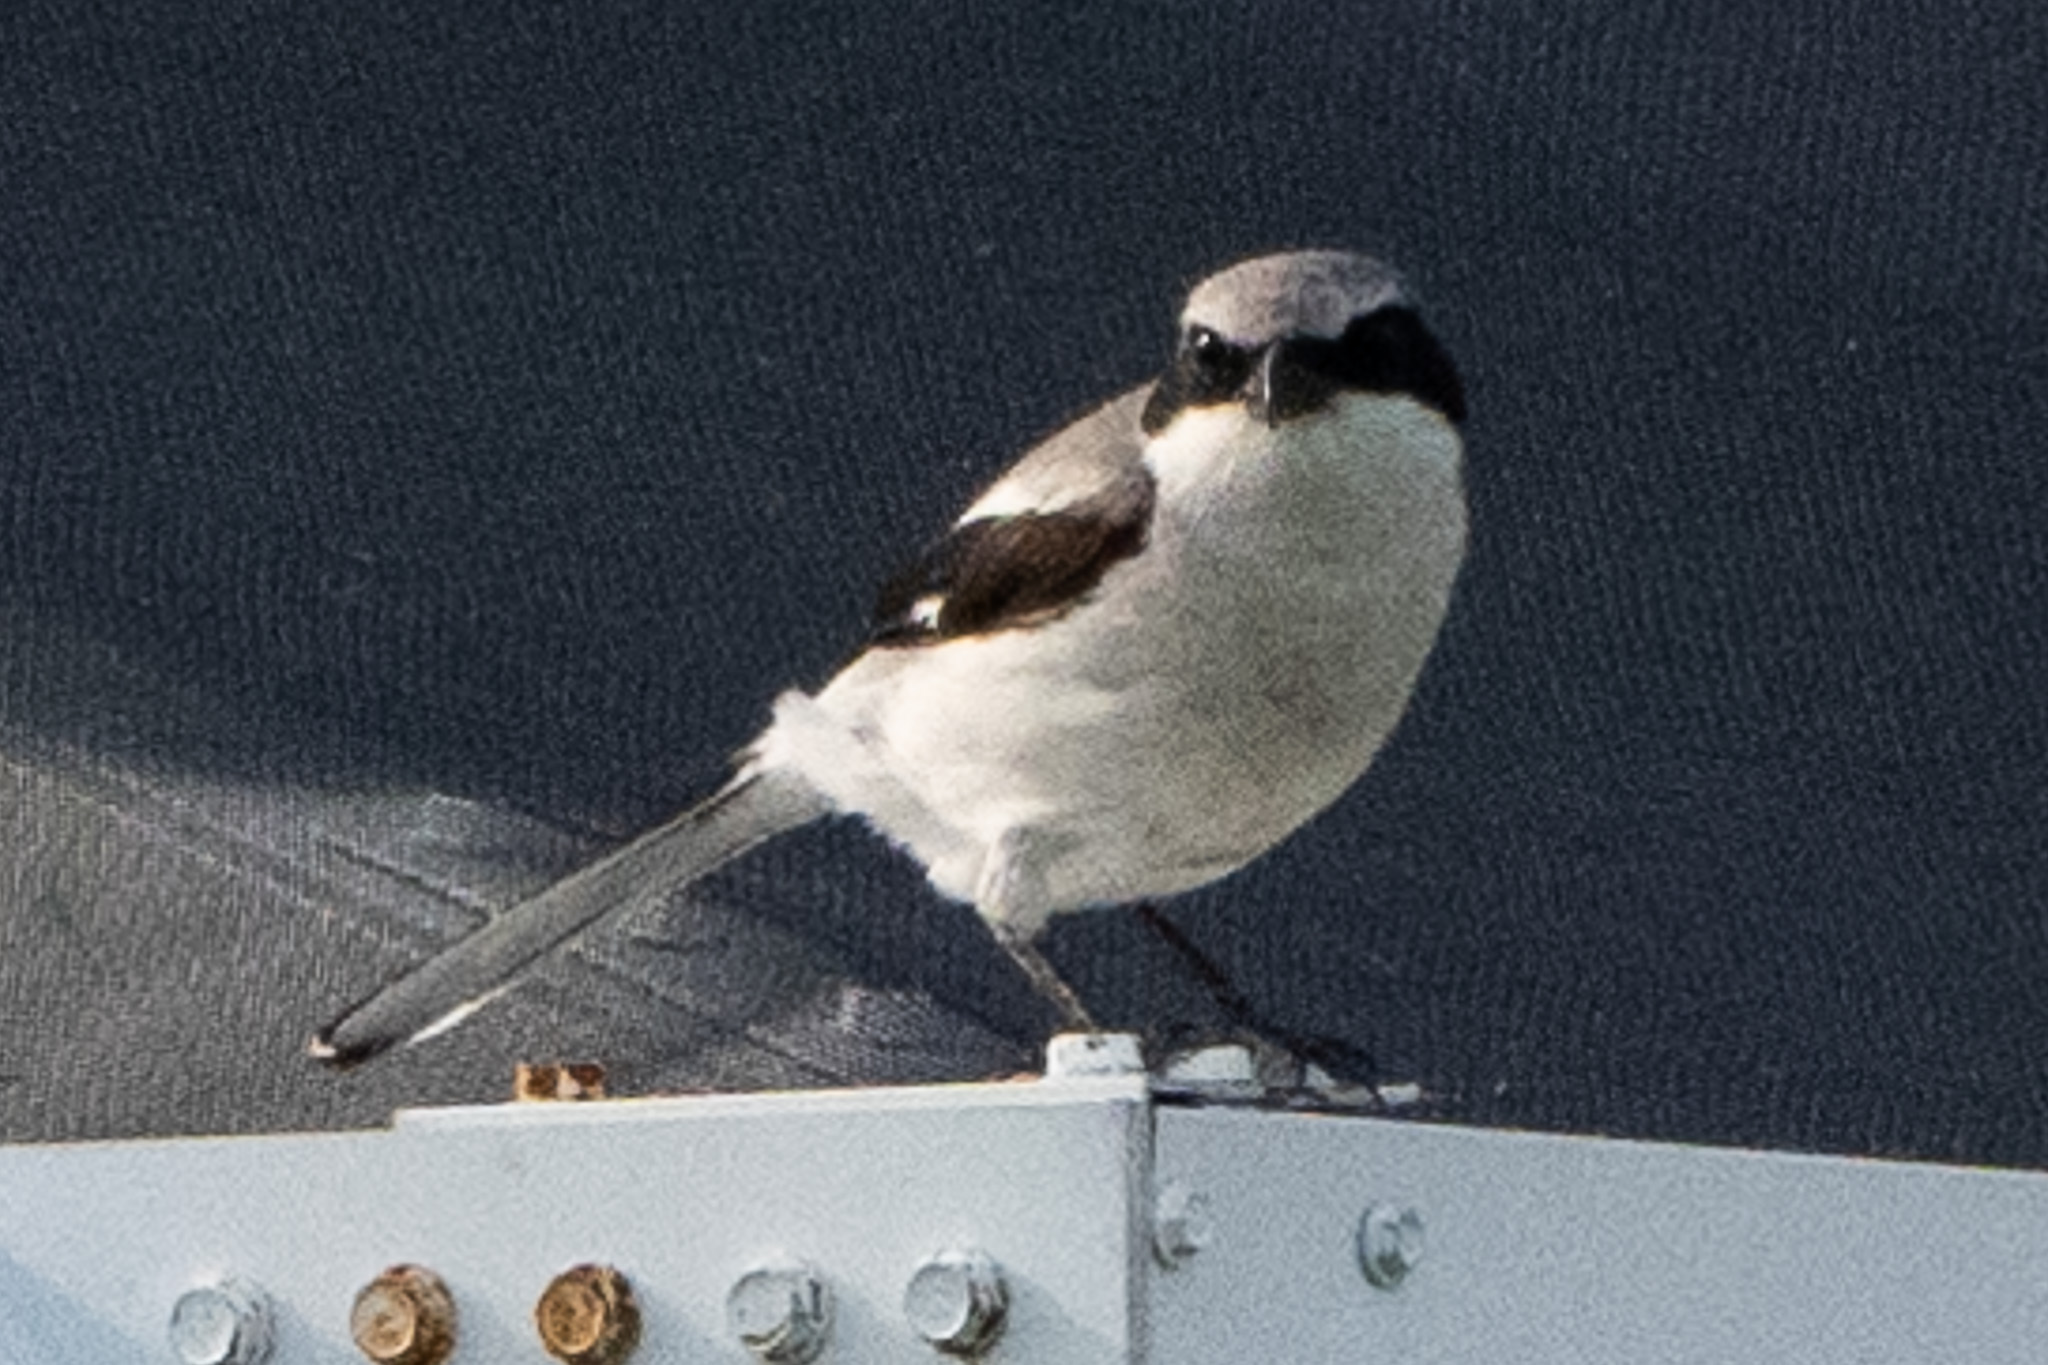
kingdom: Animalia
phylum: Chordata
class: Aves
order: Passeriformes
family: Laniidae
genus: Lanius
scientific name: Lanius ludovicianus
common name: Loggerhead shrike
